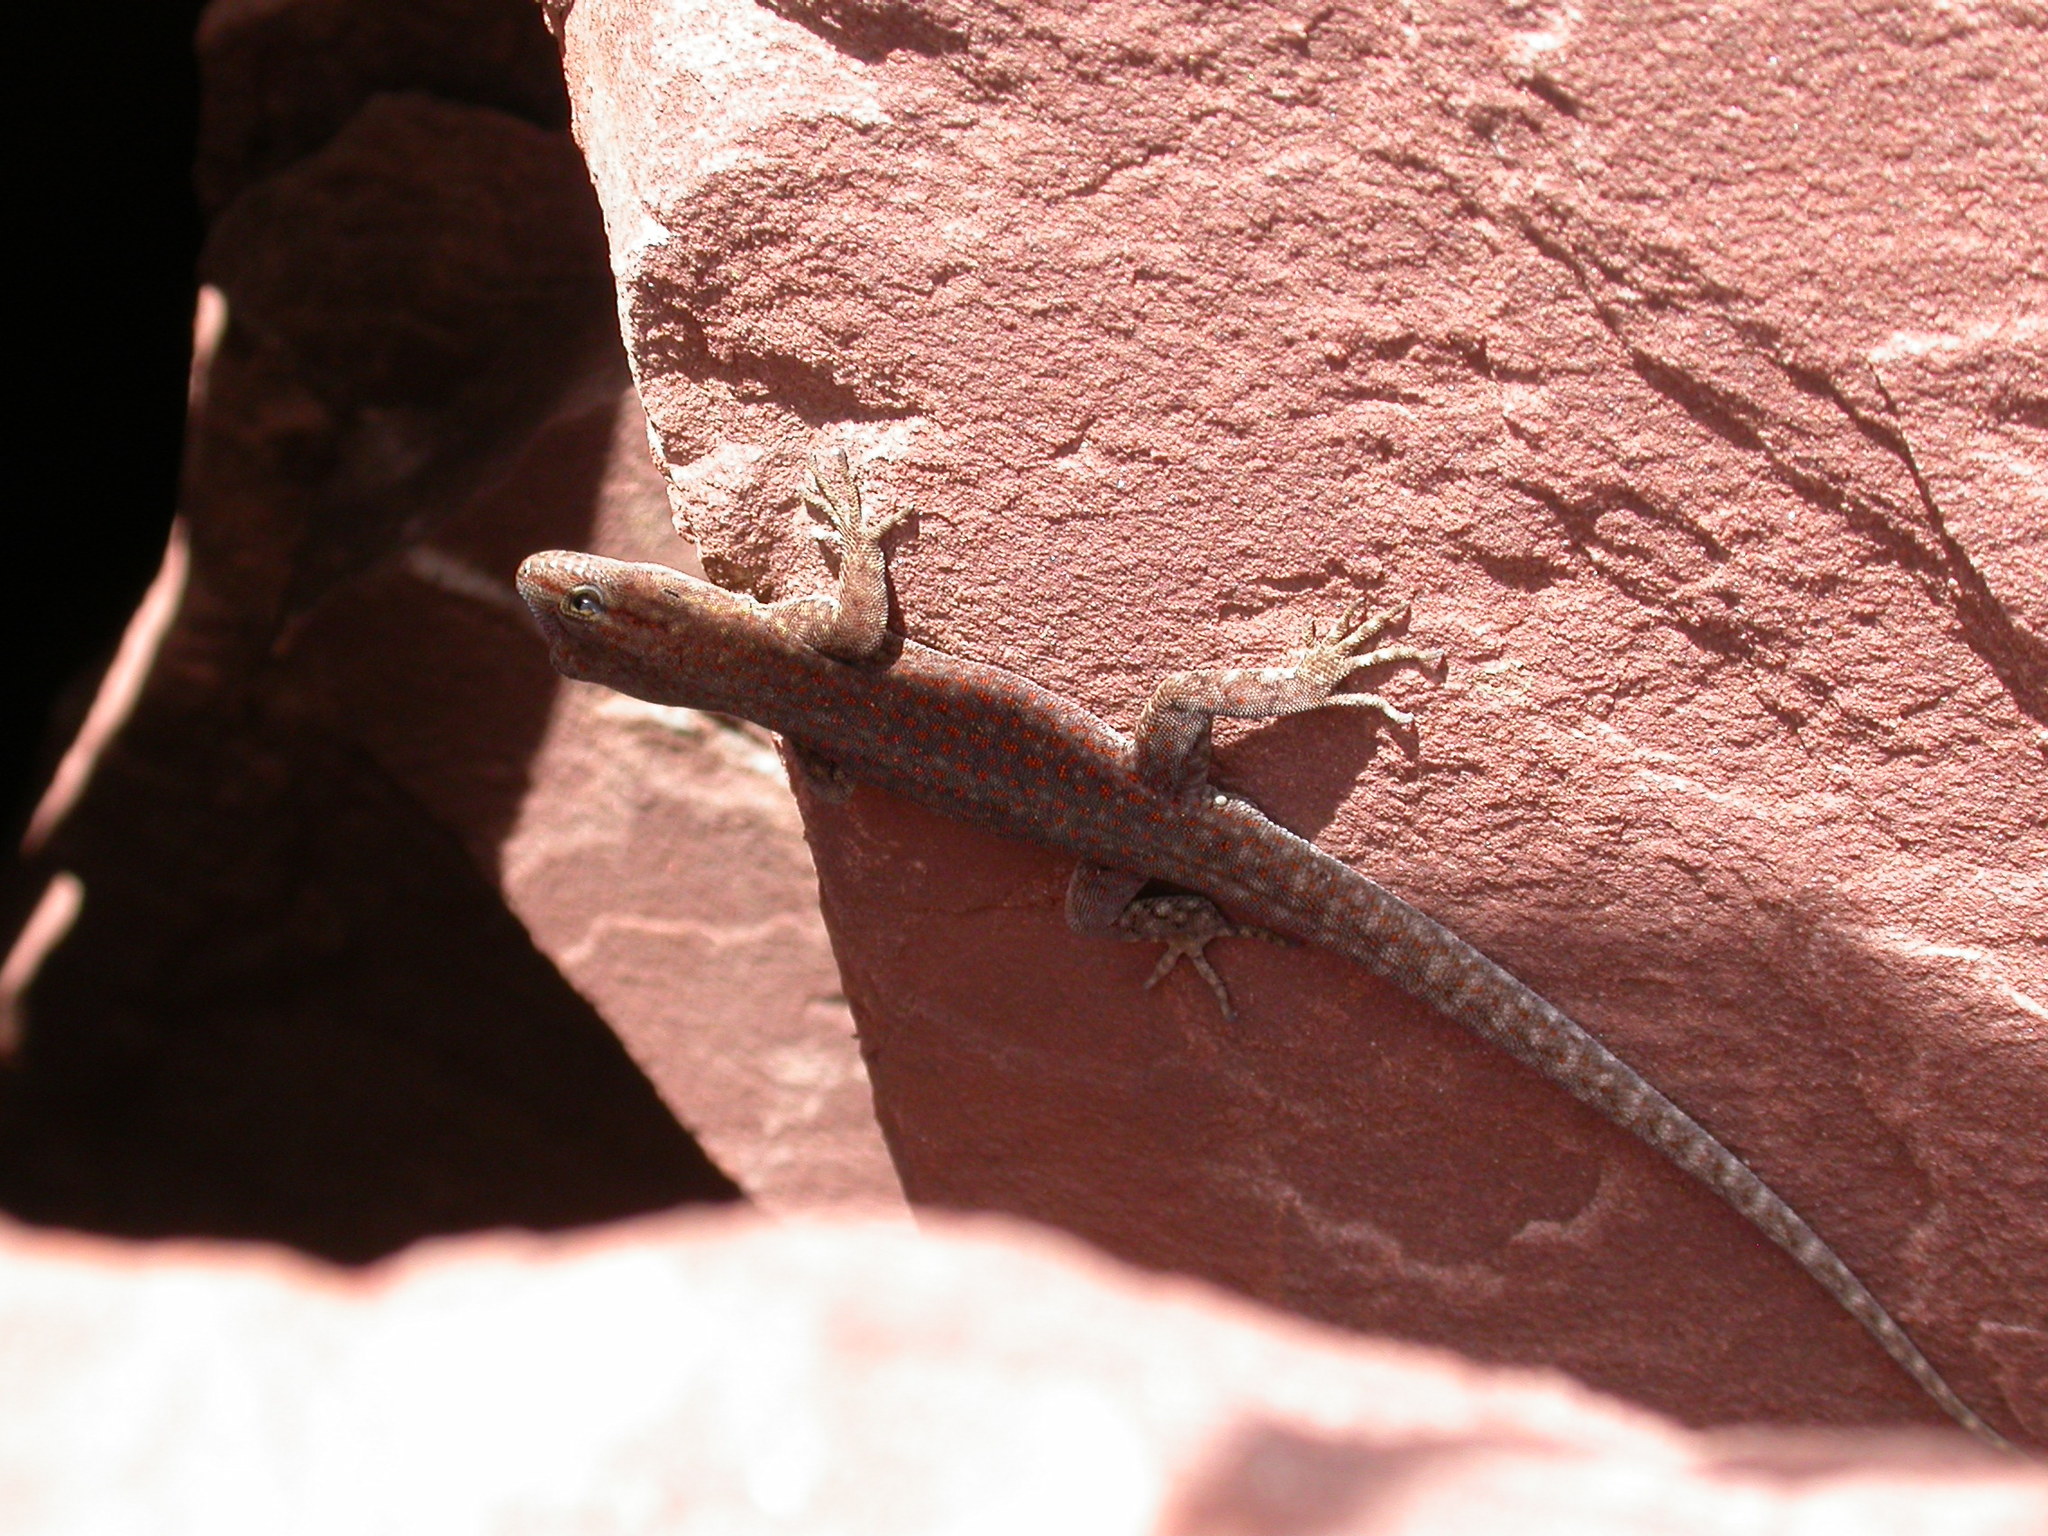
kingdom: Animalia
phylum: Chordata
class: Squamata
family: Sphaerodactylidae
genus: Quedenfeldtia
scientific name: Quedenfeldtia trachyblepharus
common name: Atlas day gecko
